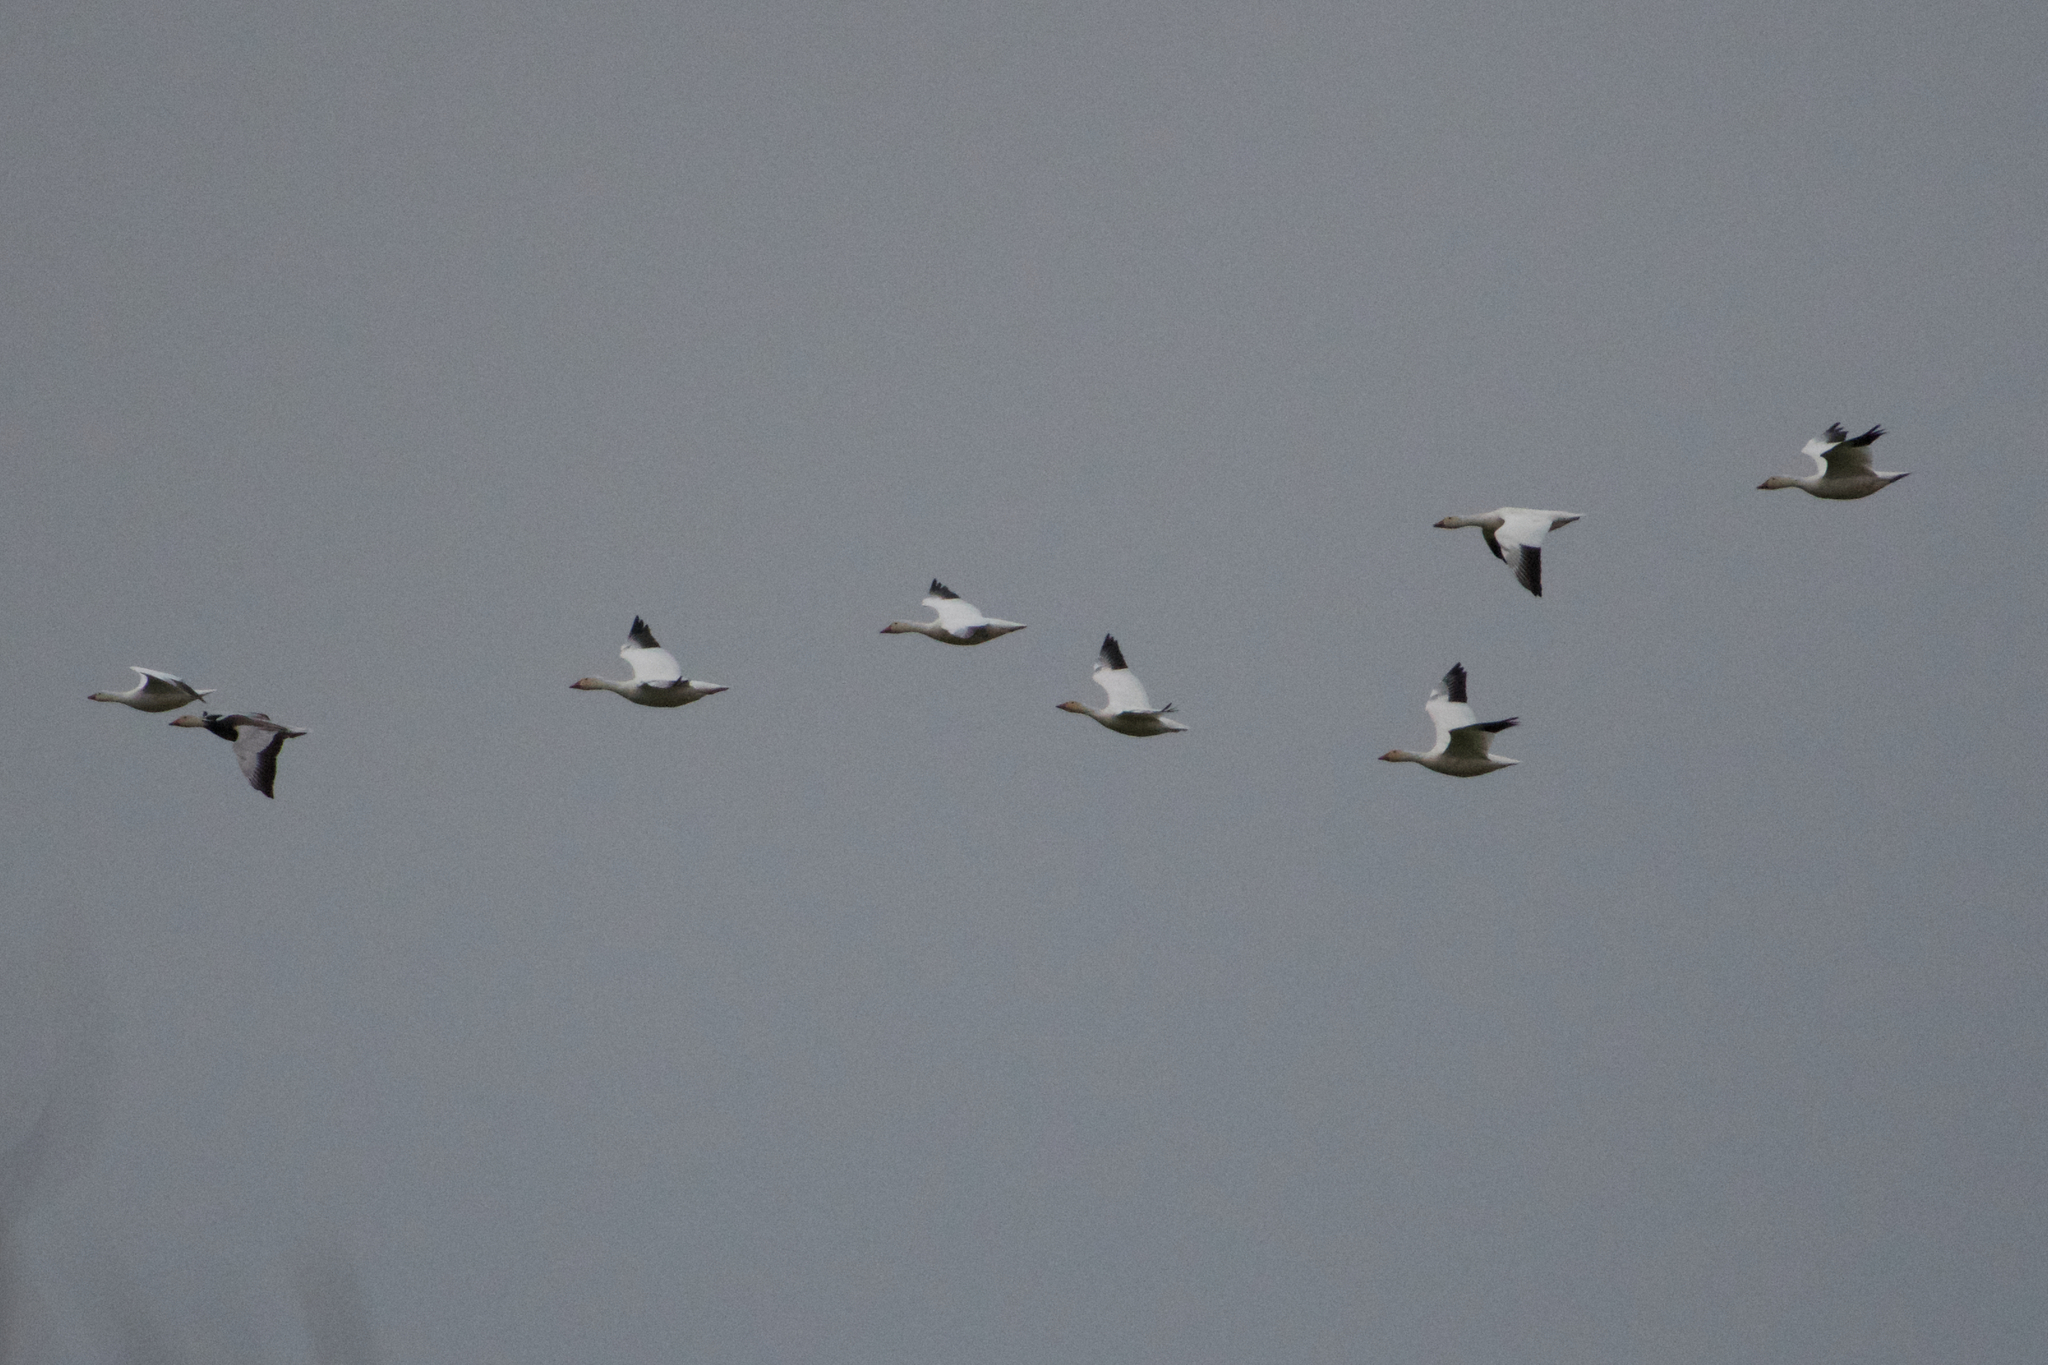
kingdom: Animalia
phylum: Chordata
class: Aves
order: Anseriformes
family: Anatidae
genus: Anser
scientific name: Anser caerulescens
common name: Snow goose
